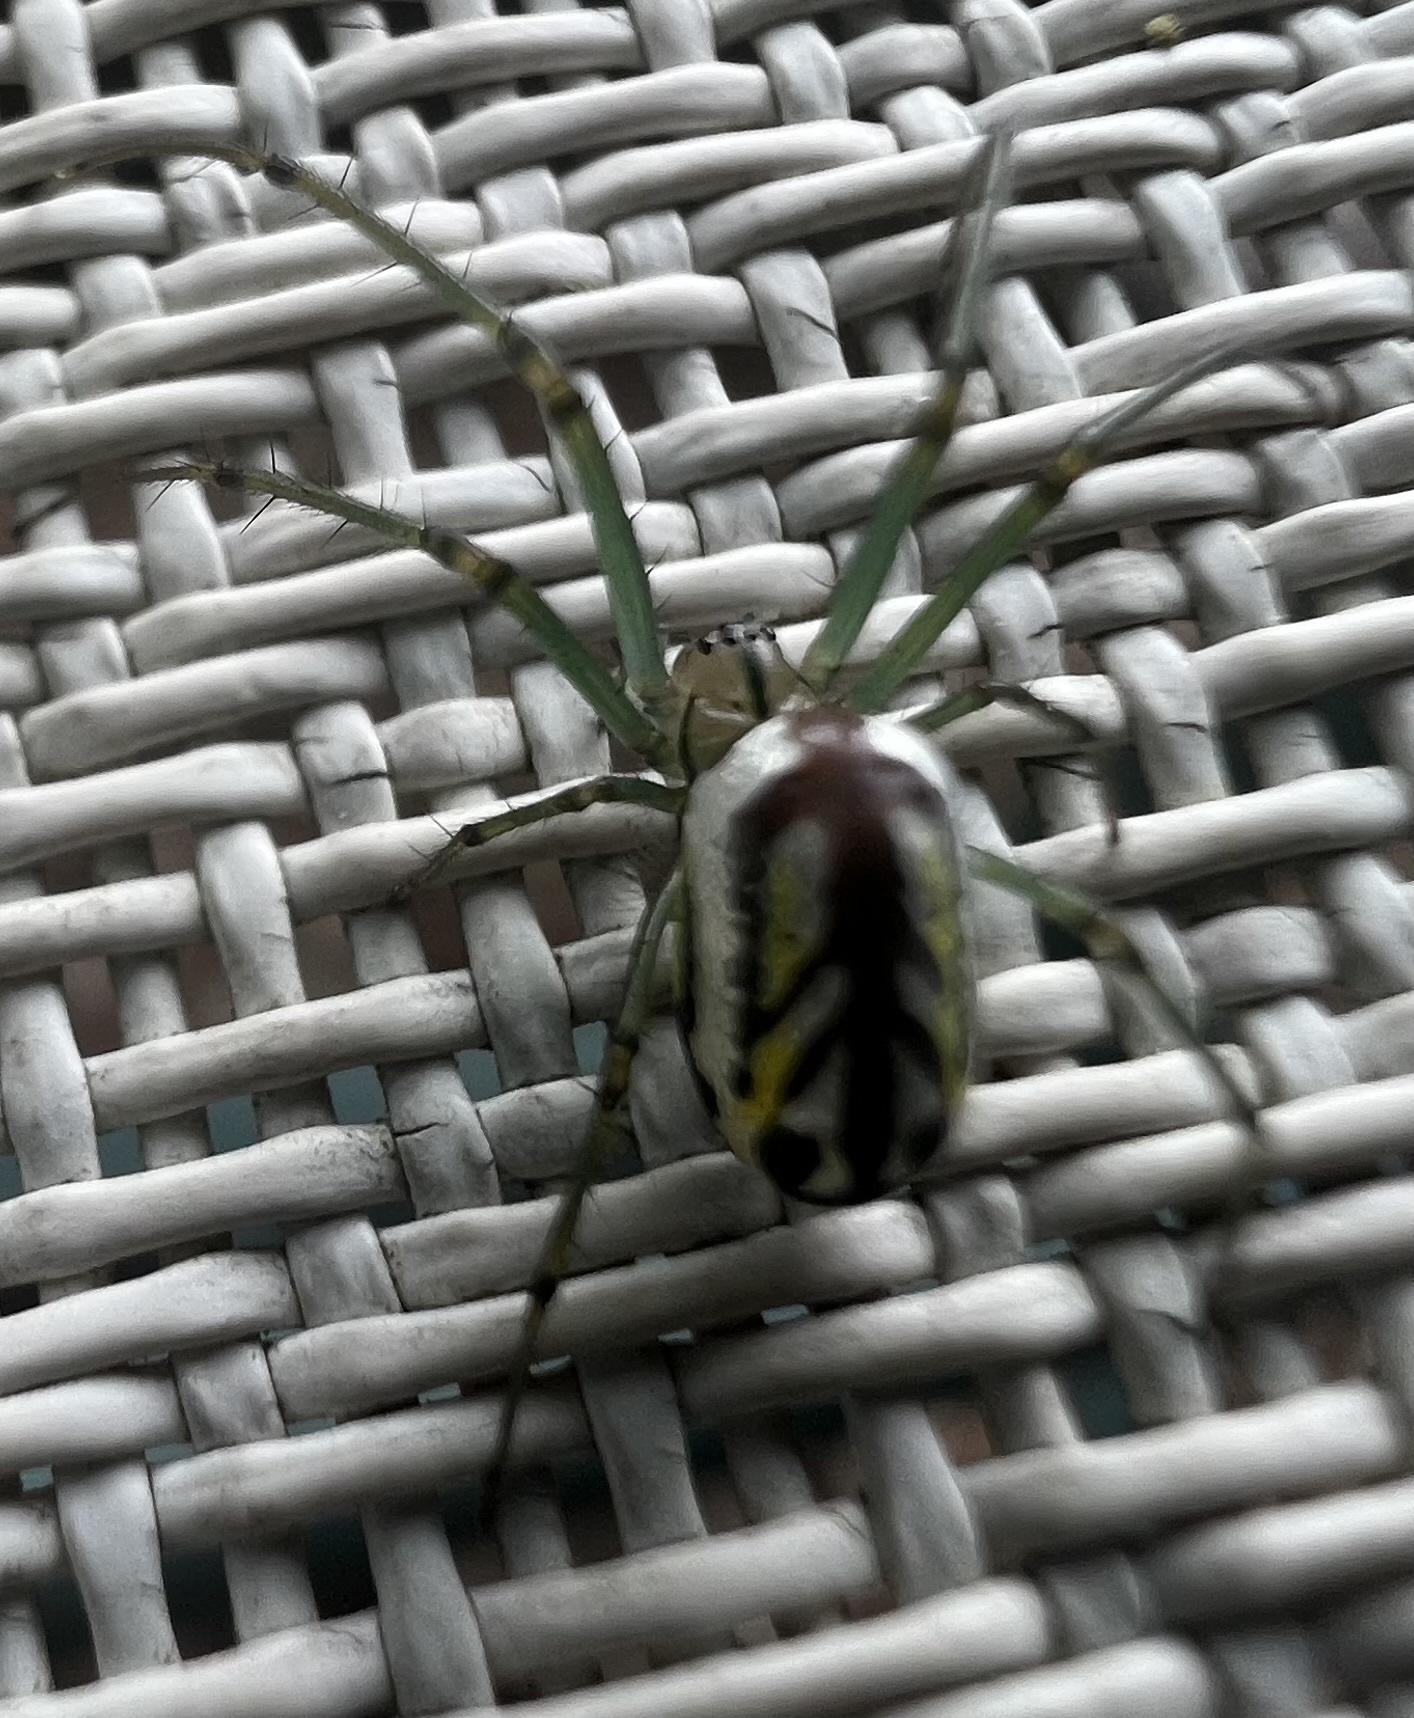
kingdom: Animalia
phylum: Arthropoda
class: Arachnida
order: Araneae
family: Tetragnathidae
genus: Leucauge
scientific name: Leucauge venusta
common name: Longjawed orb weavers
